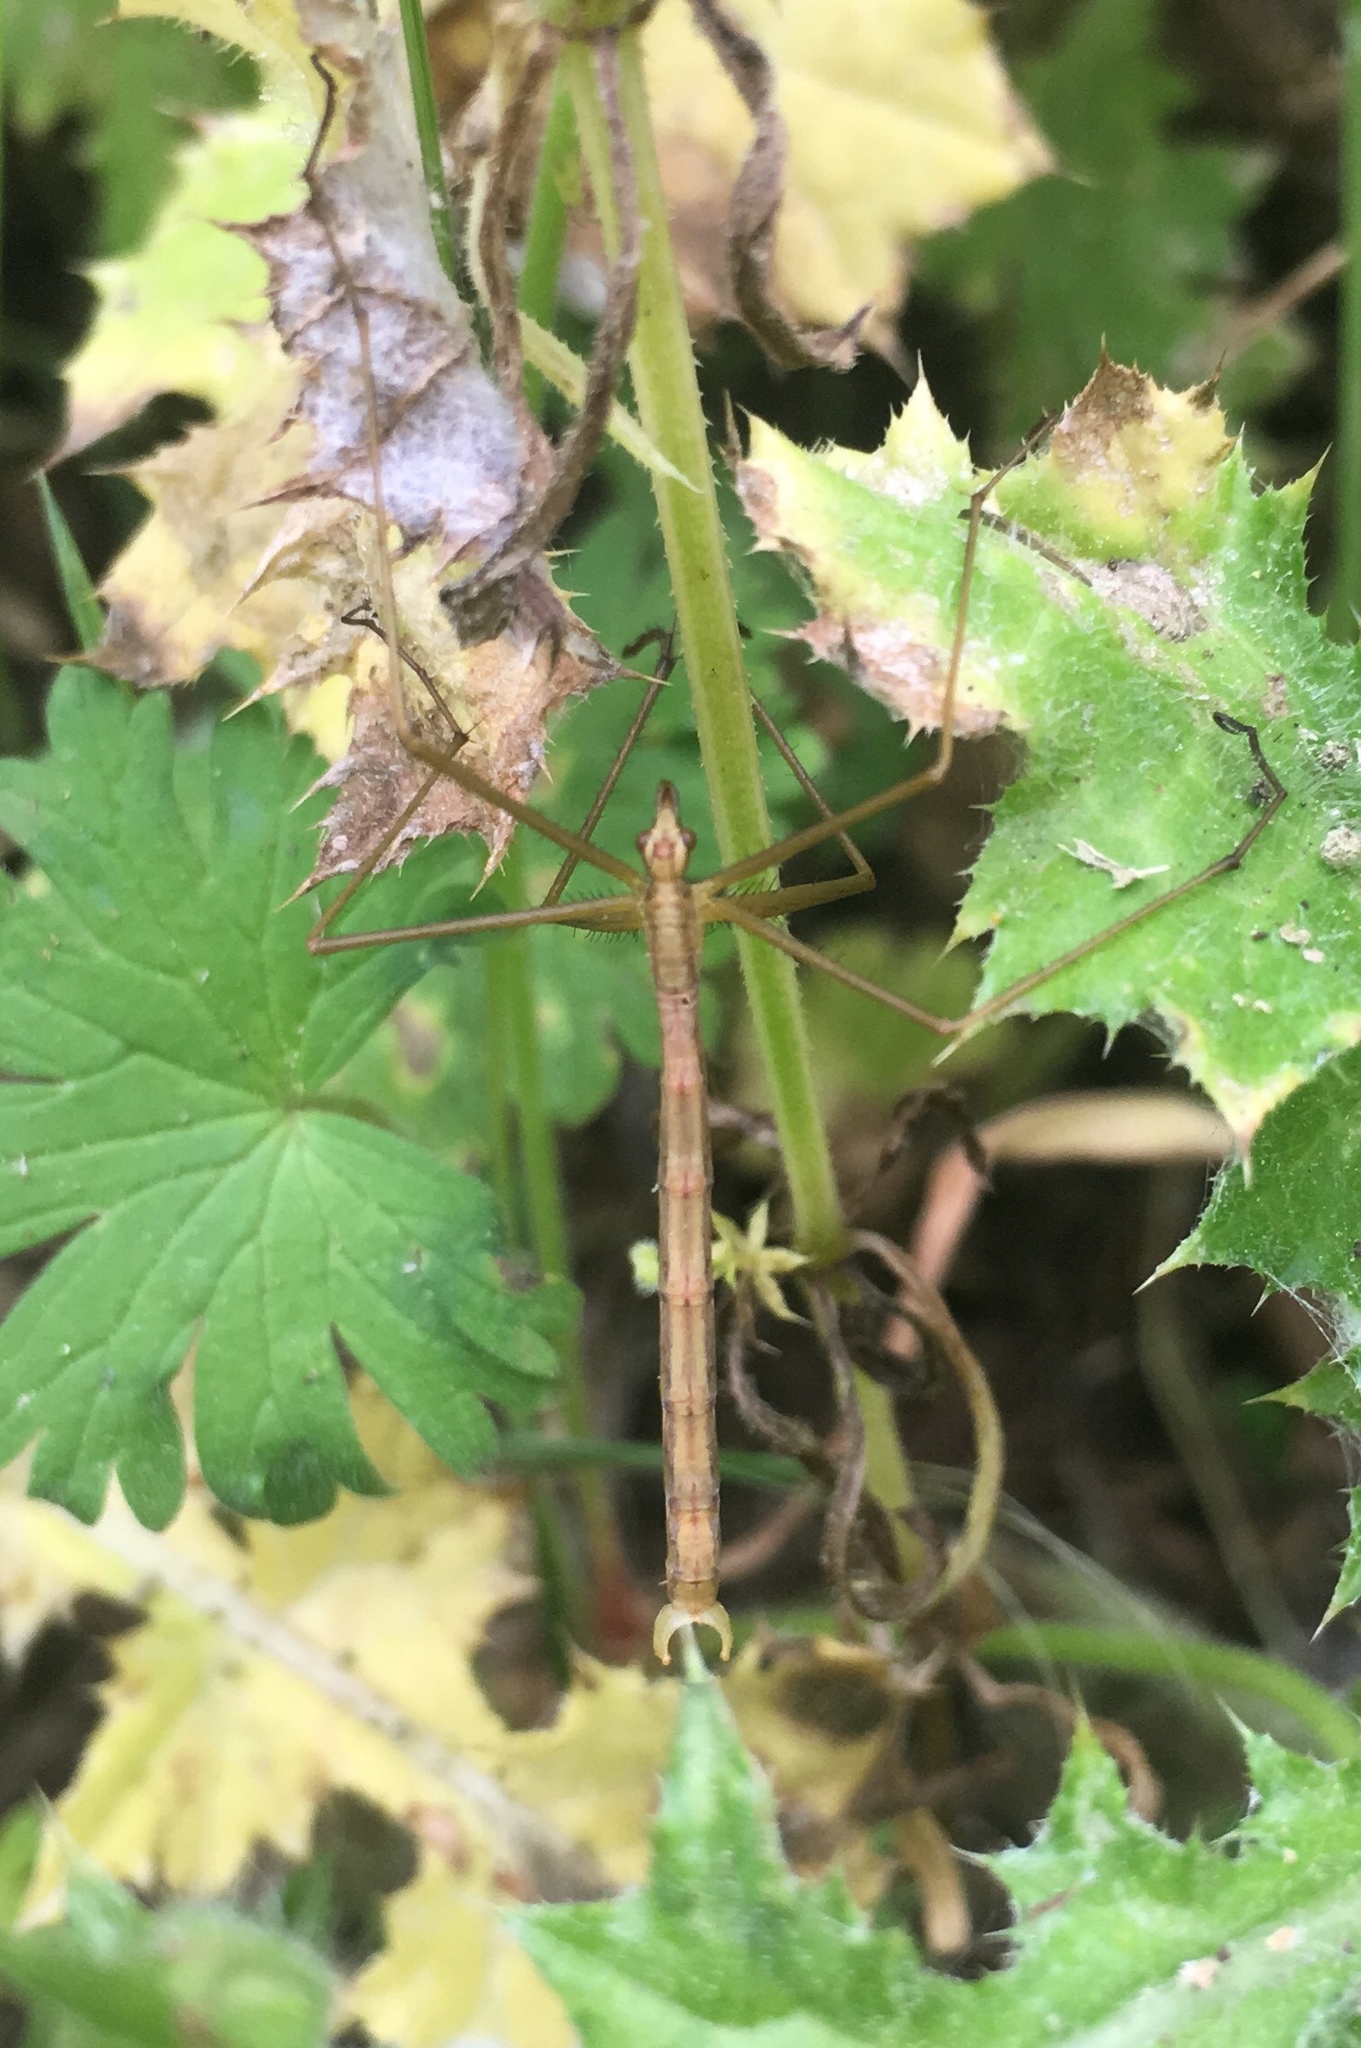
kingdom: Animalia
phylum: Arthropoda
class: Insecta
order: Mecoptera
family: Bittacidae
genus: Apterobittacus
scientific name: Apterobittacus apterus
